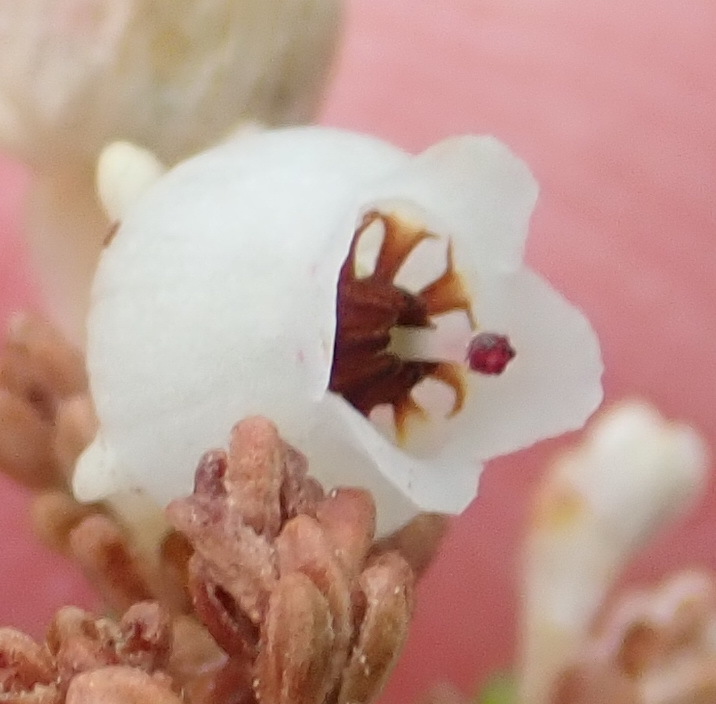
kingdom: Plantae
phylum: Tracheophyta
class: Magnoliopsida
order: Ericales
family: Ericaceae
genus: Erica
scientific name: Erica spectabilis
